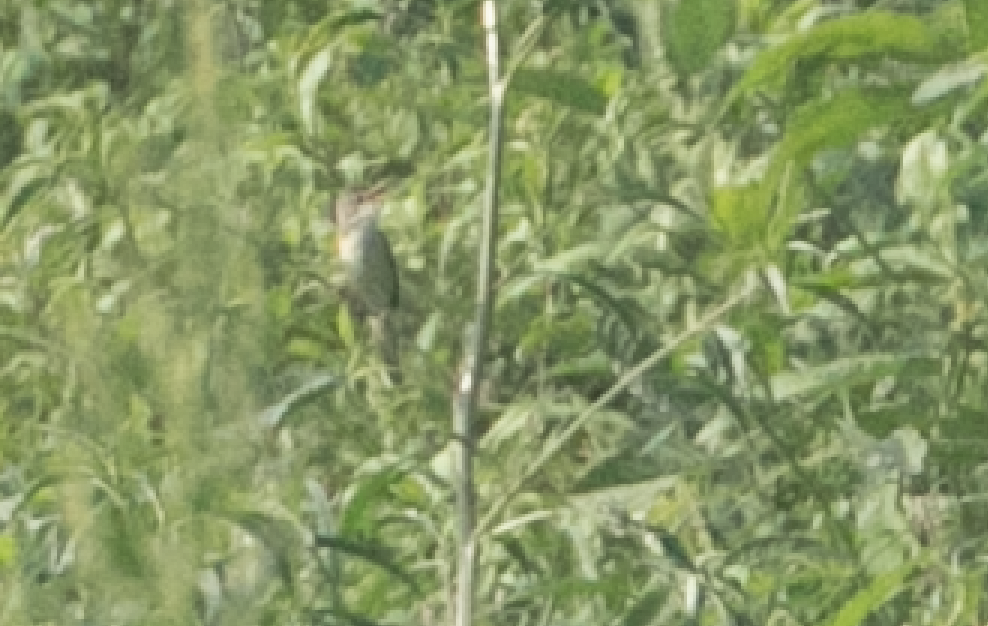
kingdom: Animalia
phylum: Chordata
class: Aves
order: Passeriformes
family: Acrocephalidae
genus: Acrocephalus
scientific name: Acrocephalus palustris
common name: Marsh warbler
